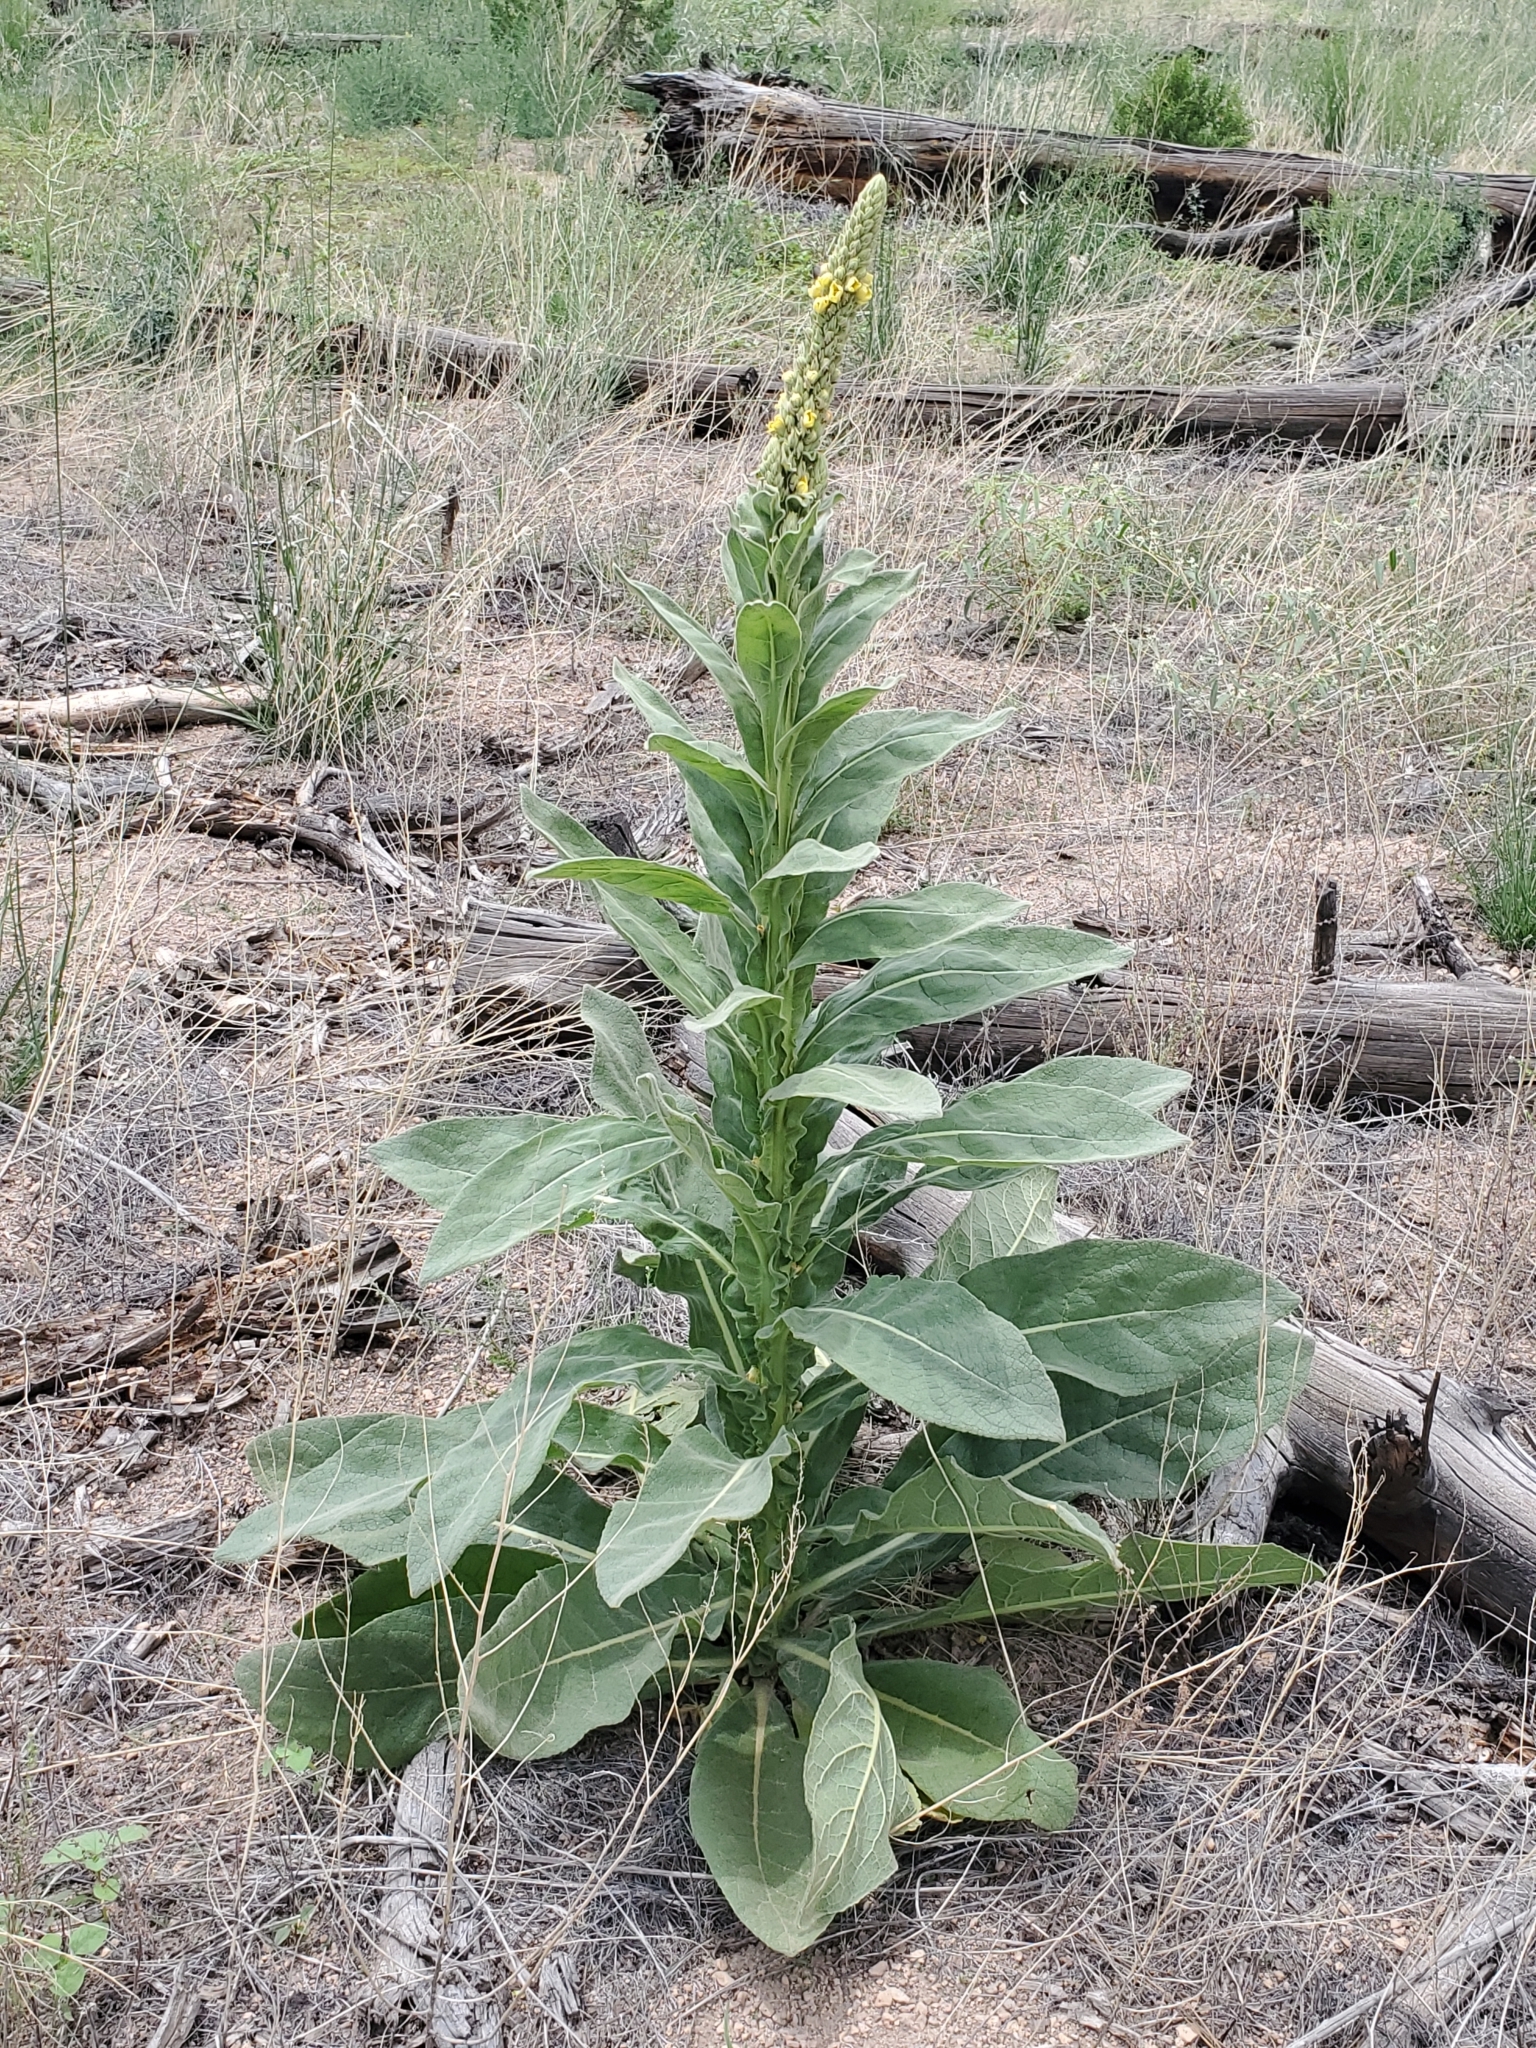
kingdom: Plantae
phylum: Tracheophyta
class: Magnoliopsida
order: Lamiales
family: Scrophulariaceae
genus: Verbascum
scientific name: Verbascum thapsus
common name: Common mullein
